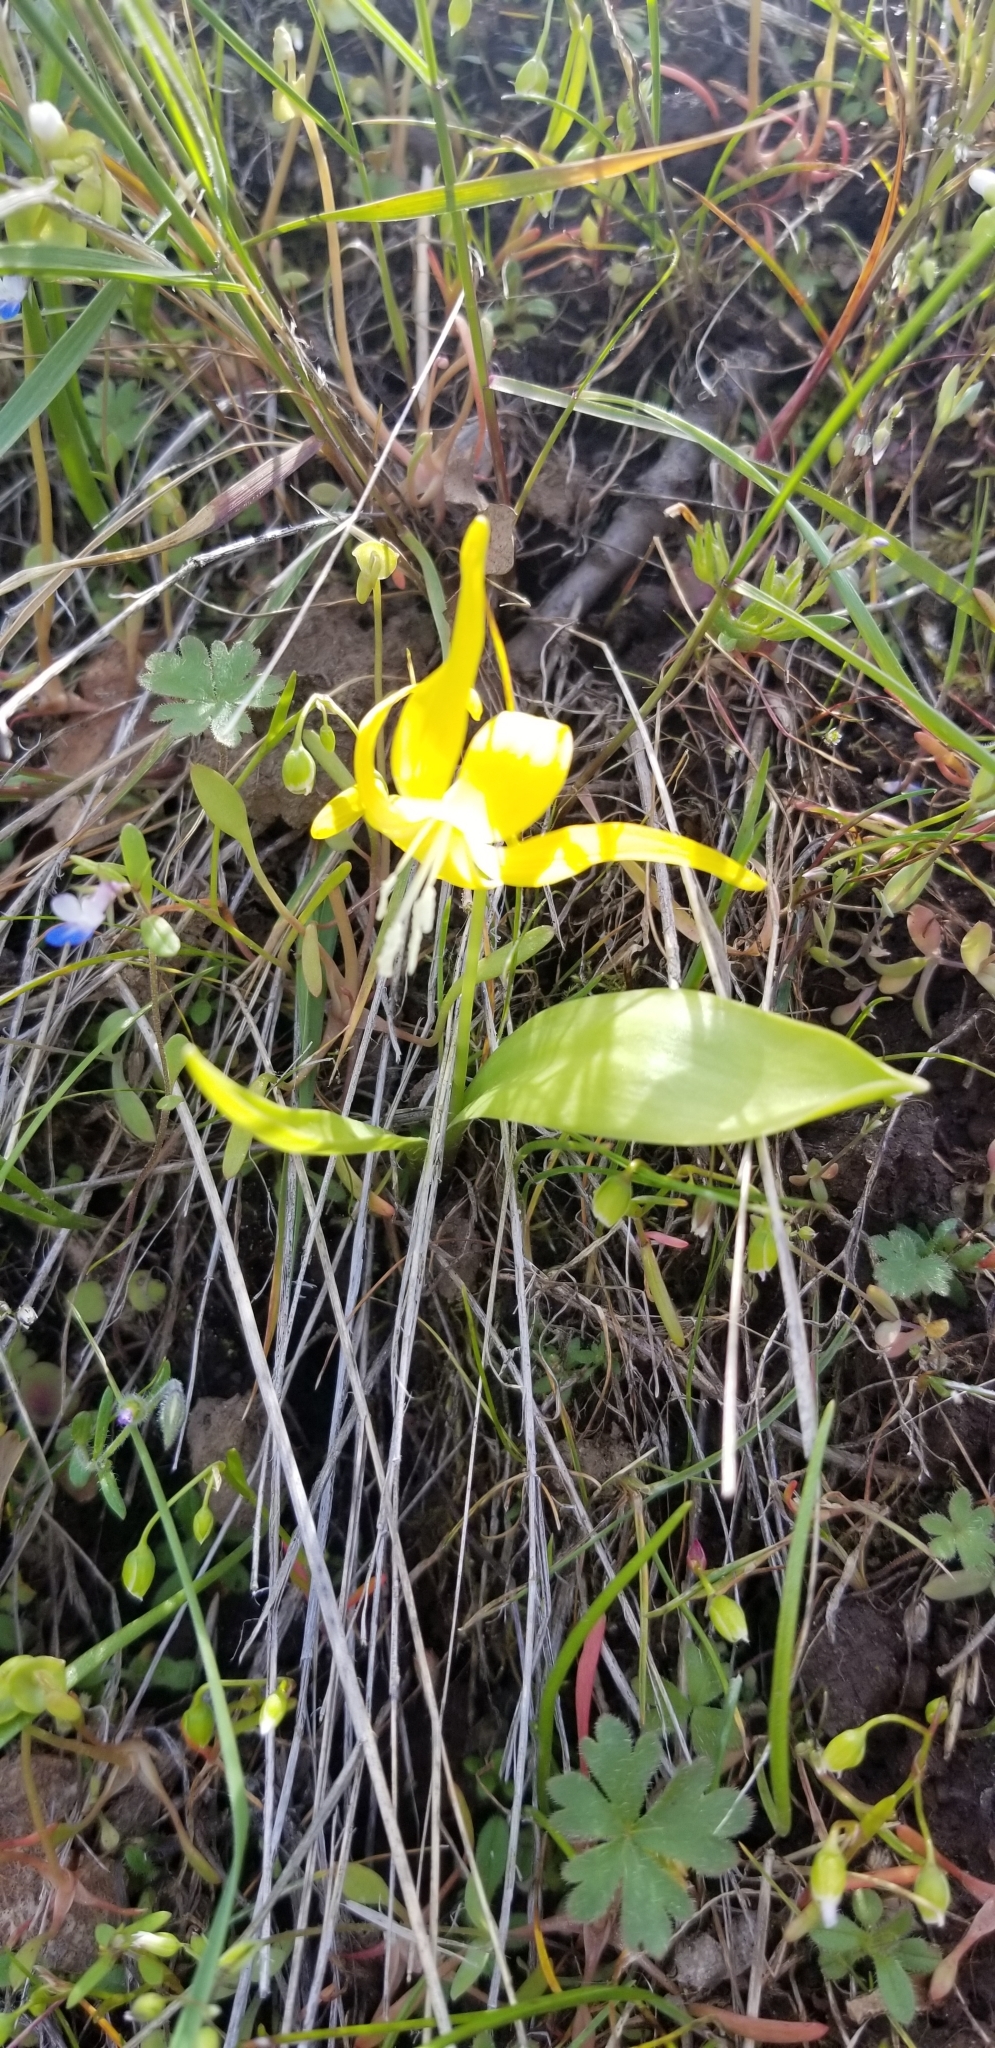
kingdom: Plantae
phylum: Tracheophyta
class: Liliopsida
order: Liliales
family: Liliaceae
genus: Erythronium
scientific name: Erythronium grandiflorum
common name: Avalanche-lily
